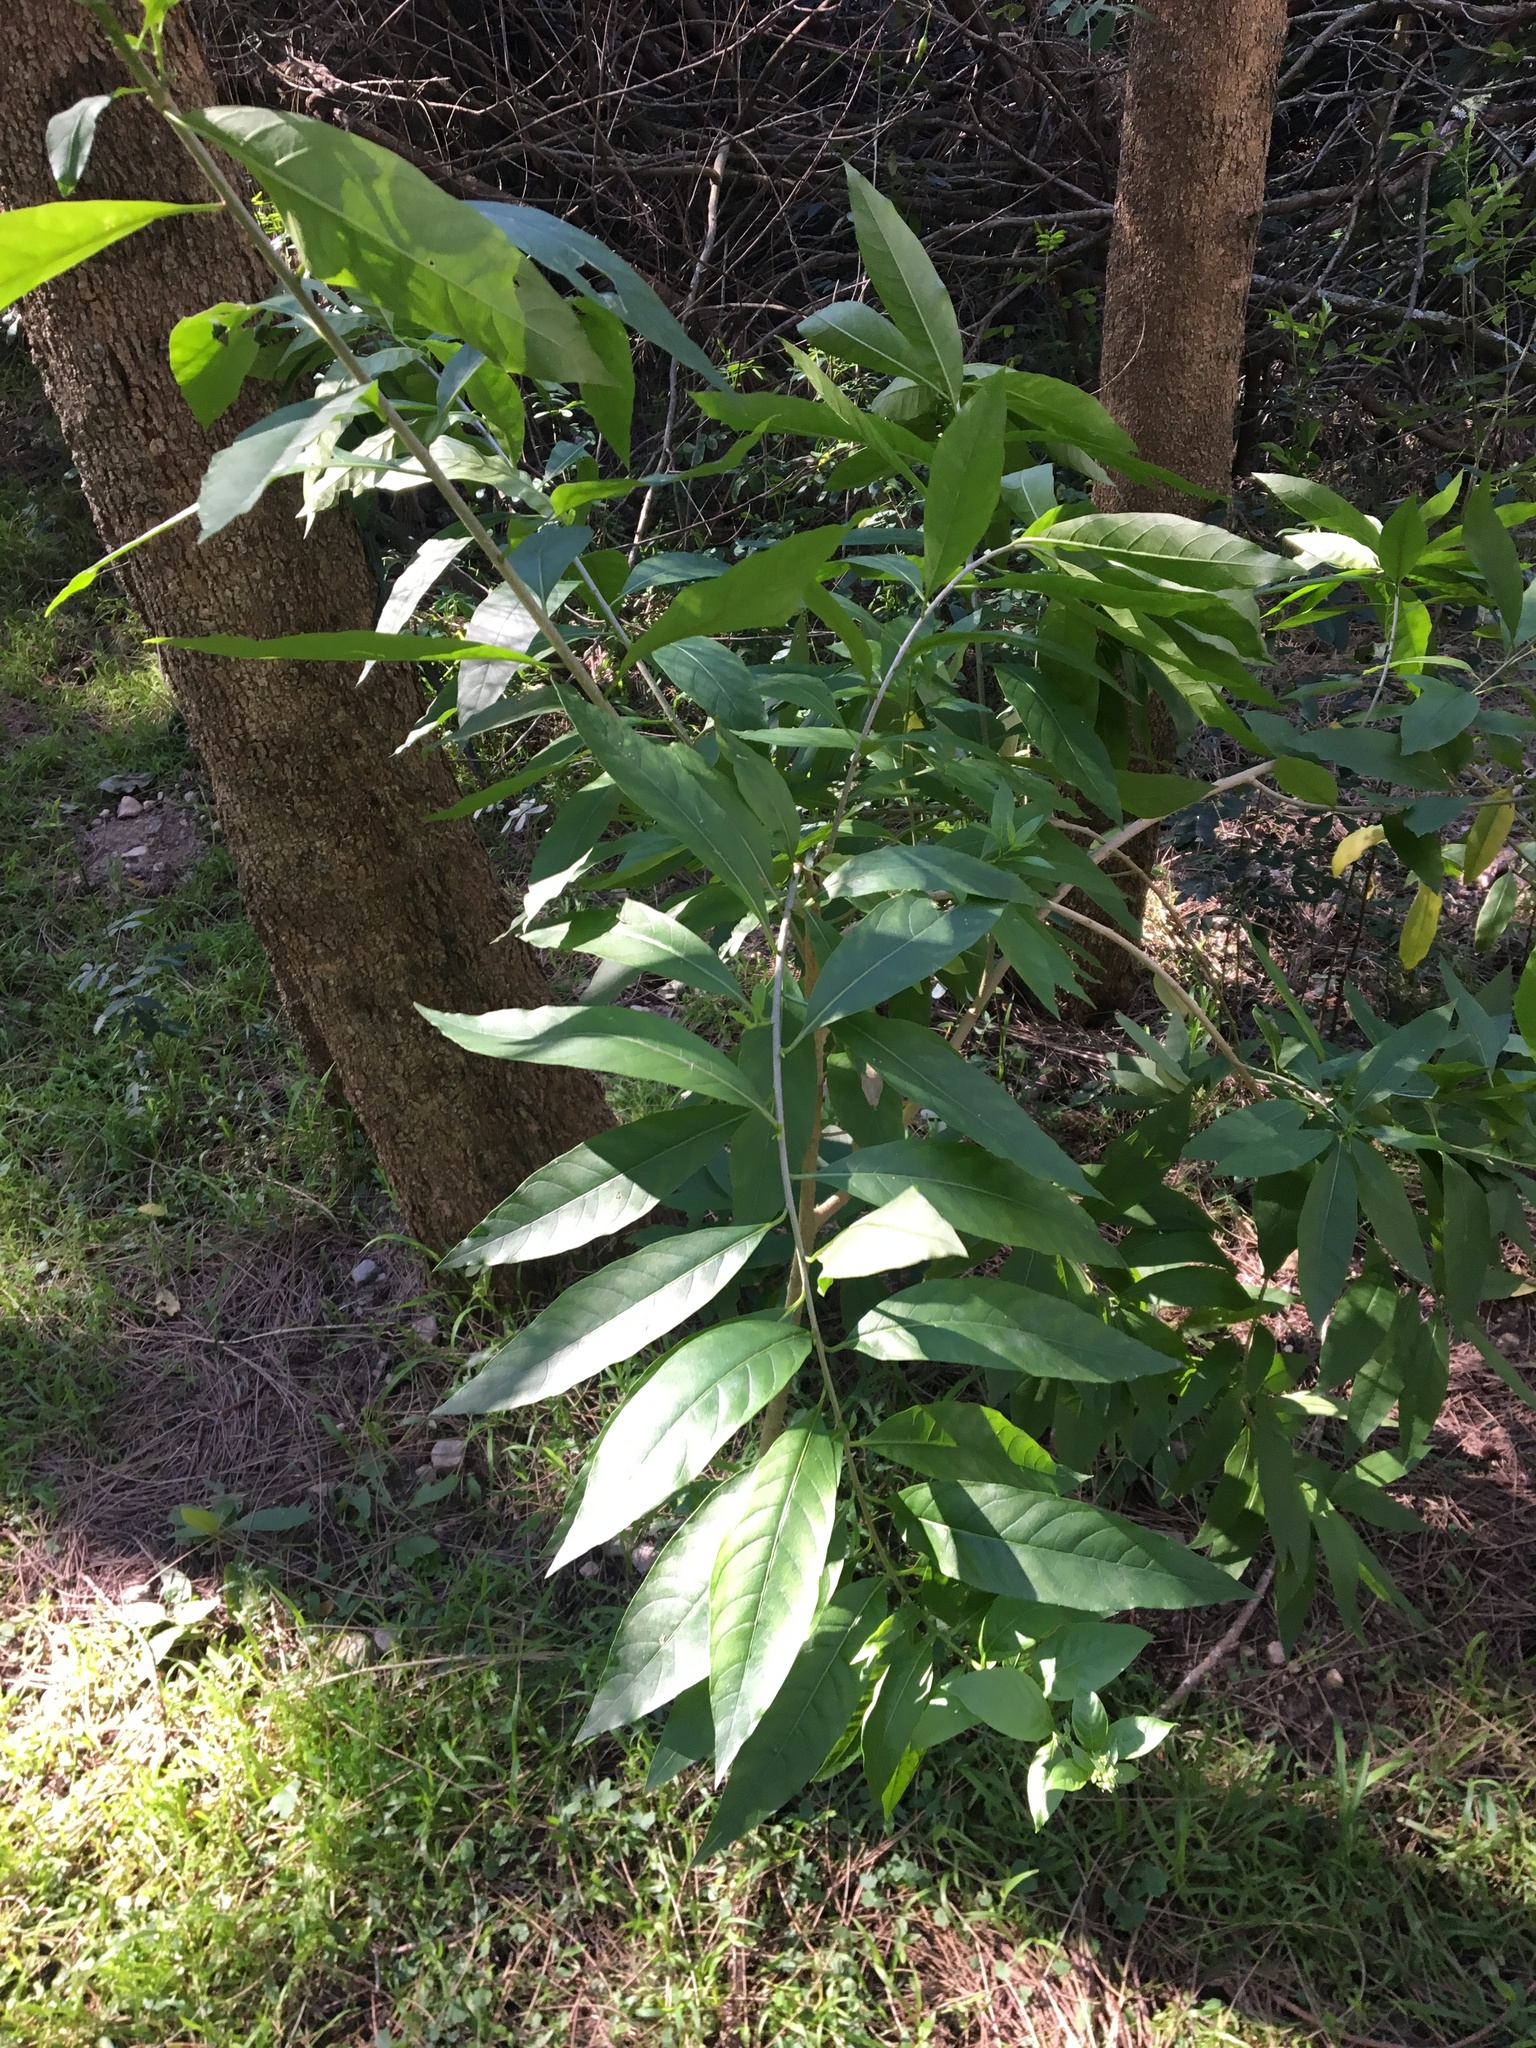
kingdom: Plantae
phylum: Tracheophyta
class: Magnoliopsida
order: Solanales
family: Solanaceae
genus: Cestrum
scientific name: Cestrum nocturnum
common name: Night jessamine
